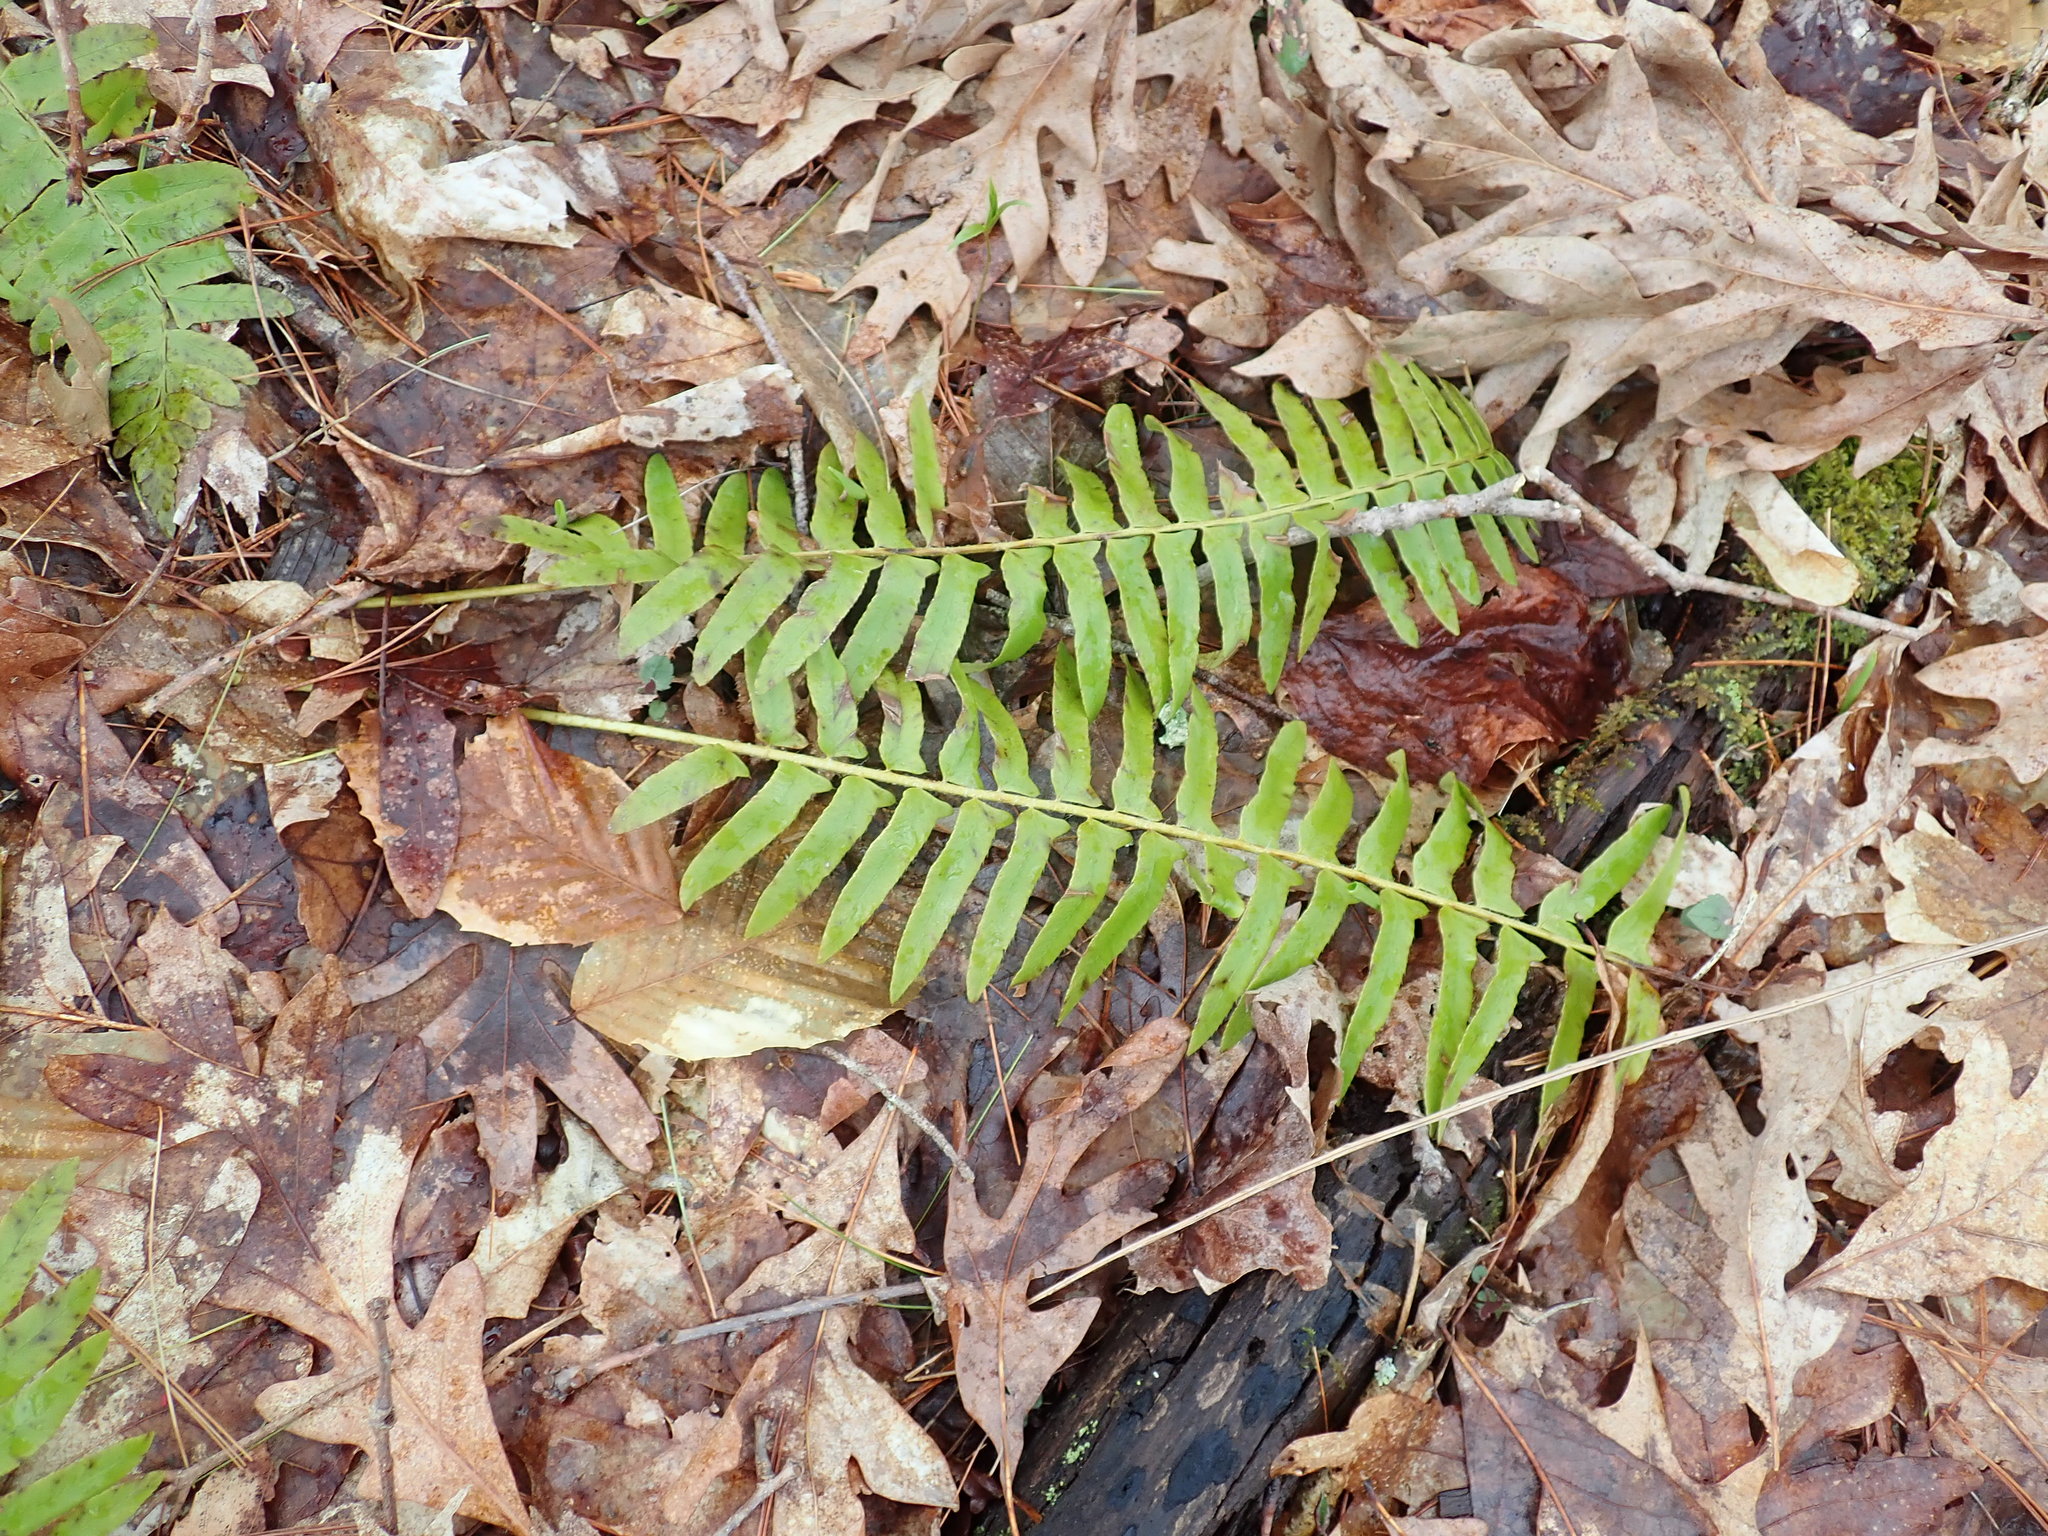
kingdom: Plantae
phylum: Tracheophyta
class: Polypodiopsida
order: Polypodiales
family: Dryopteridaceae
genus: Polystichum
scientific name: Polystichum acrostichoides
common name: Christmas fern
